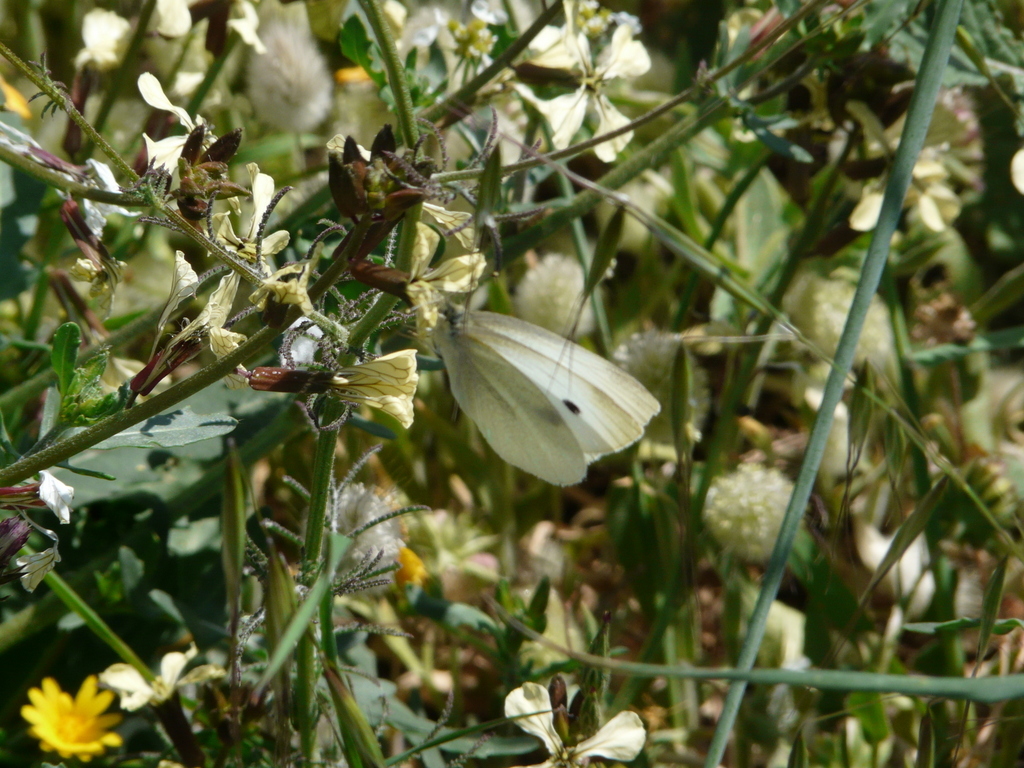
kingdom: Animalia
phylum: Arthropoda
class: Insecta
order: Lepidoptera
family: Pieridae
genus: Pieris
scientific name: Pieris rapae
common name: Small white
